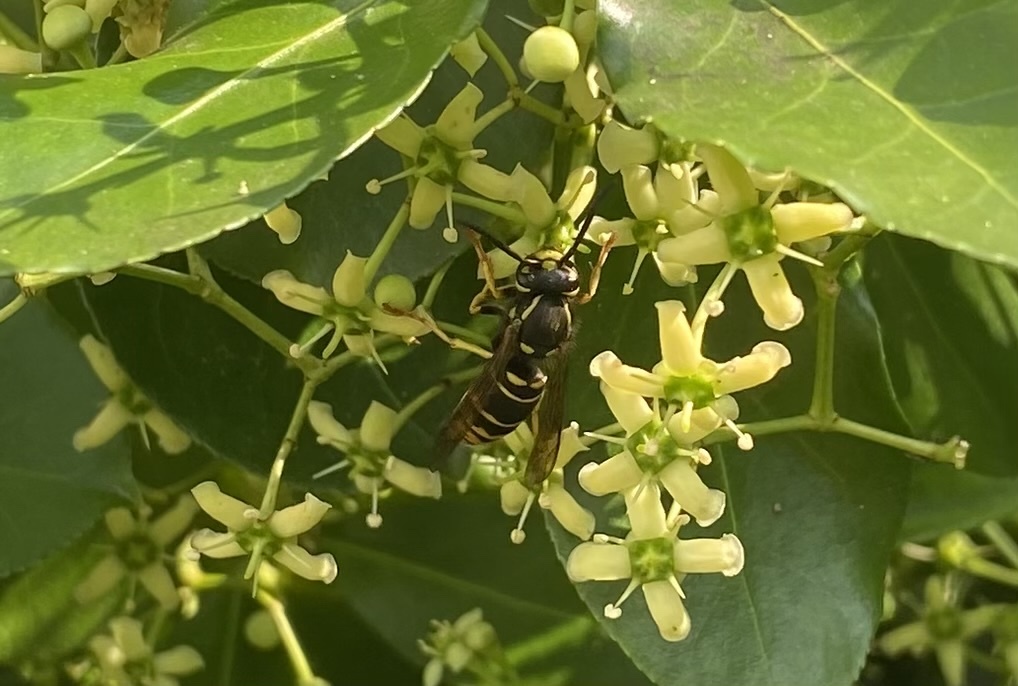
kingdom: Animalia
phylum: Arthropoda
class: Insecta
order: Hymenoptera
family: Vespidae
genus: Vespula
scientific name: Vespula vidua
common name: Widow yellowjacket
